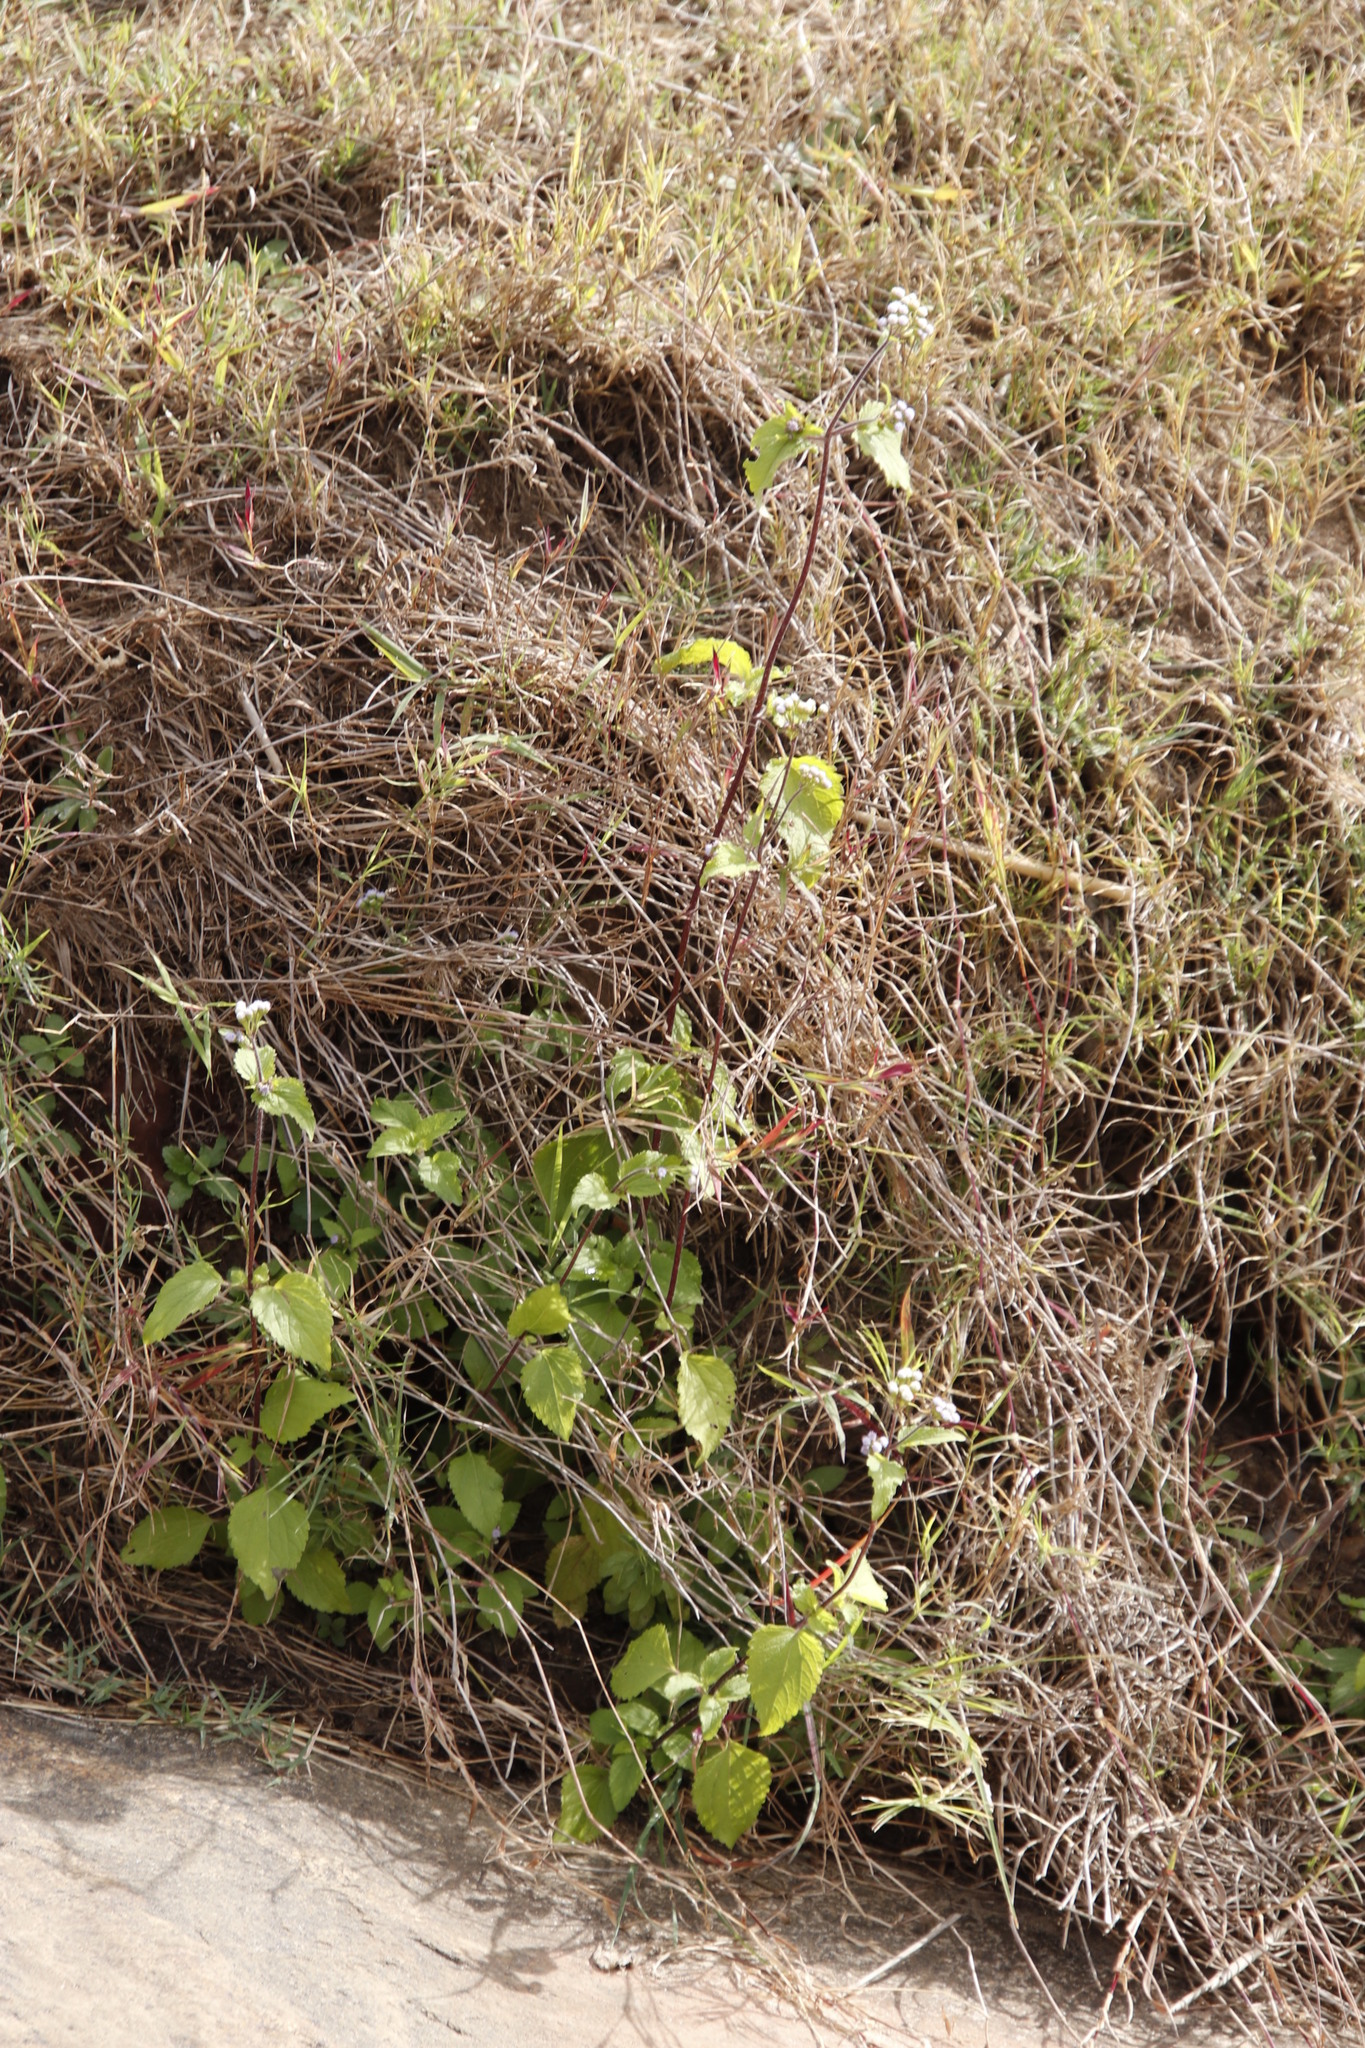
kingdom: Plantae
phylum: Tracheophyta
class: Magnoliopsida
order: Asterales
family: Asteraceae
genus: Chromolaena
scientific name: Chromolaena odorata
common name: Siamweed
